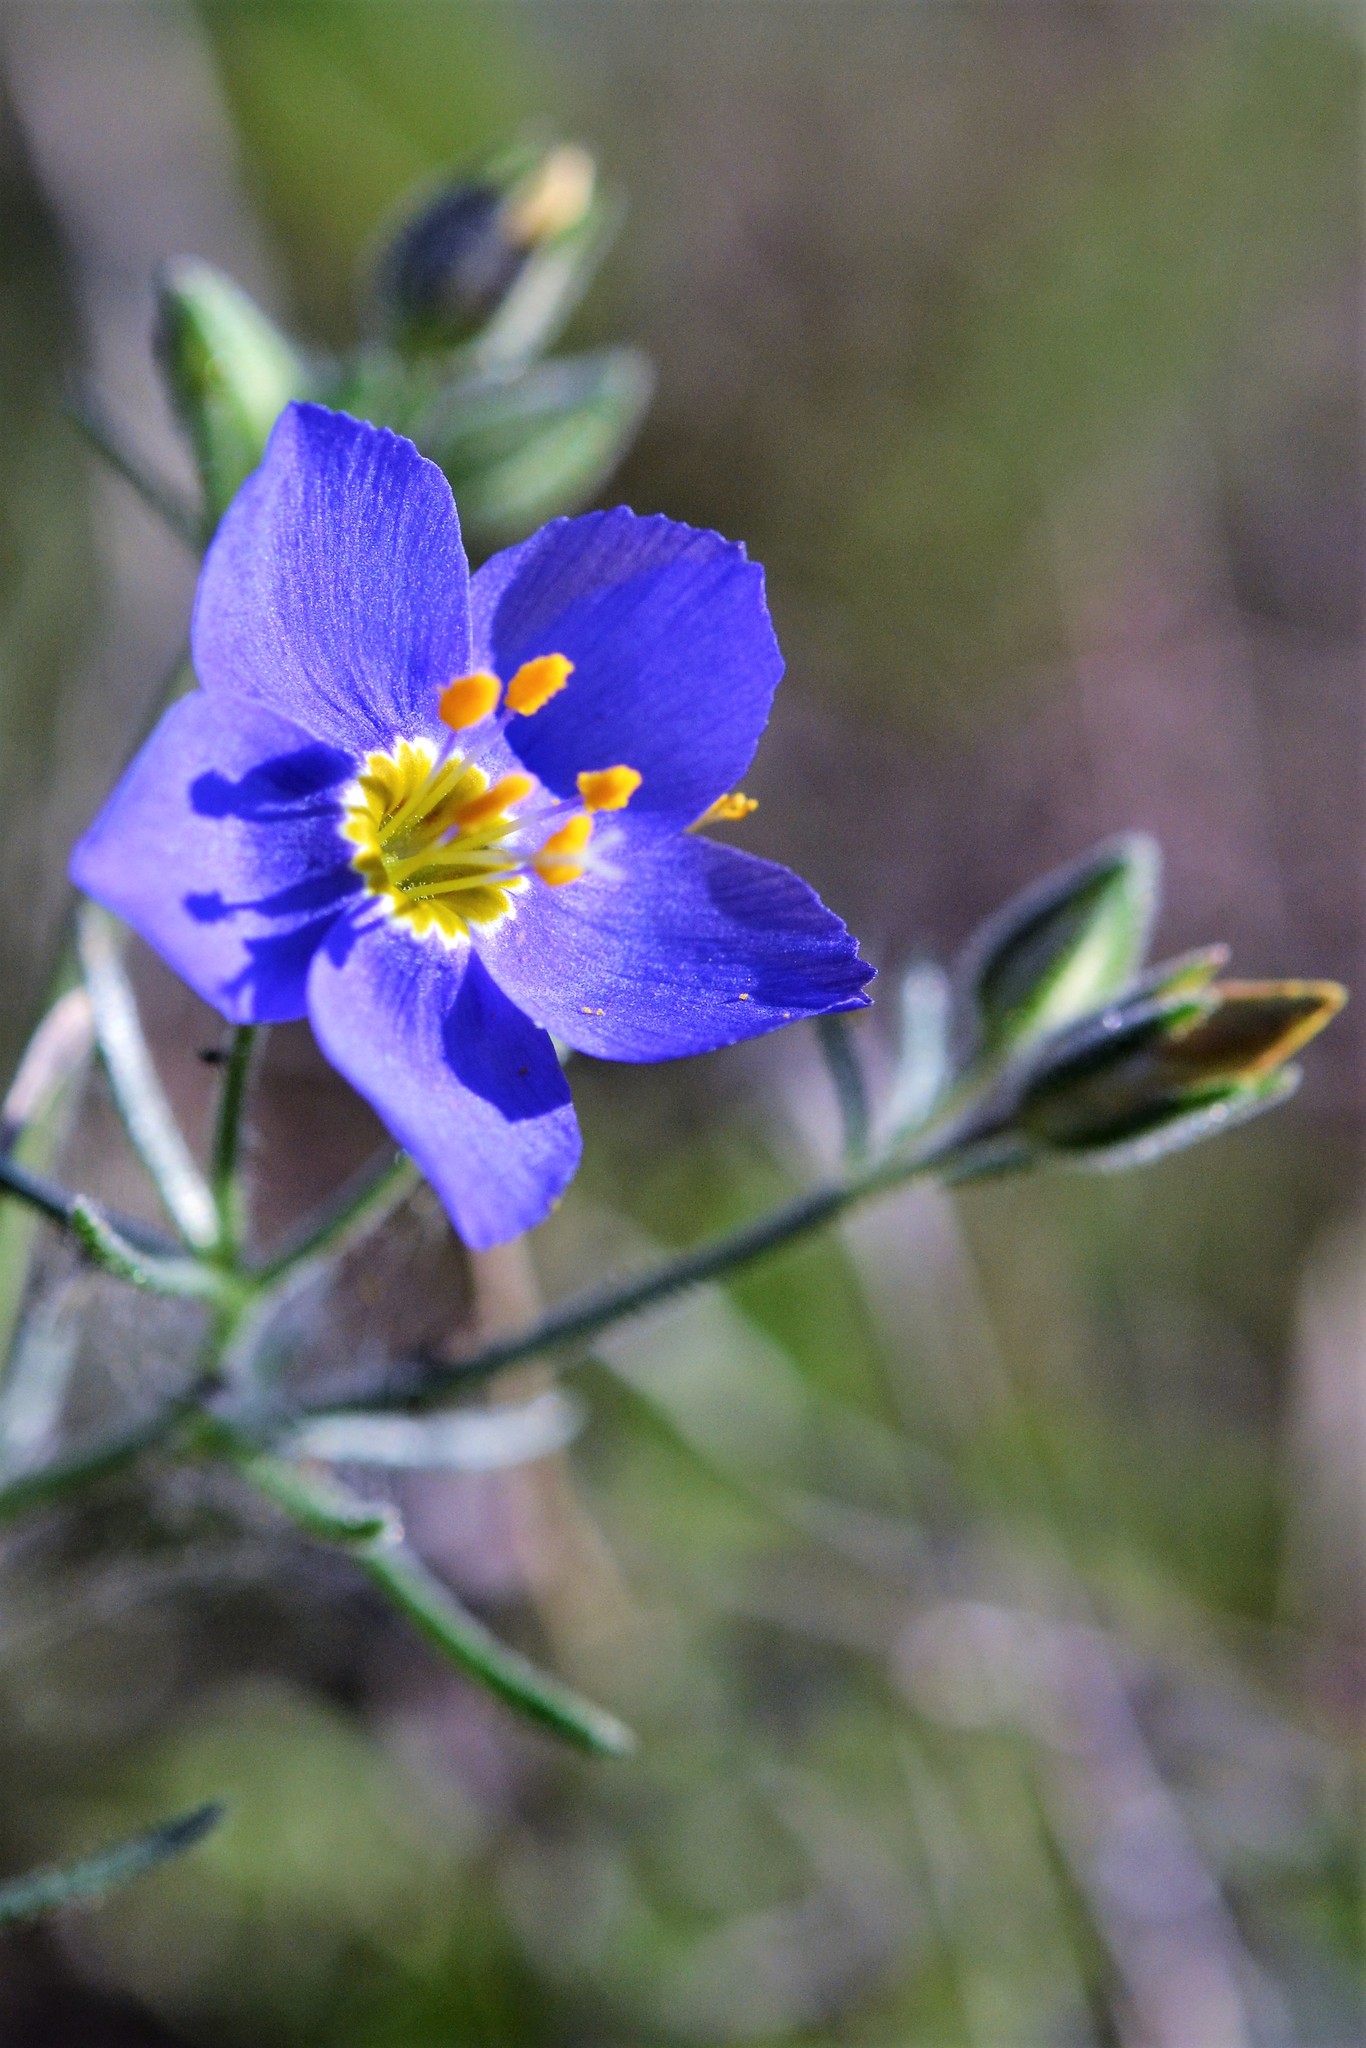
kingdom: Plantae
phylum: Tracheophyta
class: Magnoliopsida
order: Ericales
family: Polemoniaceae
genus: Giliastrum
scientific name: Giliastrum rigidulum
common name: Bluebowls
